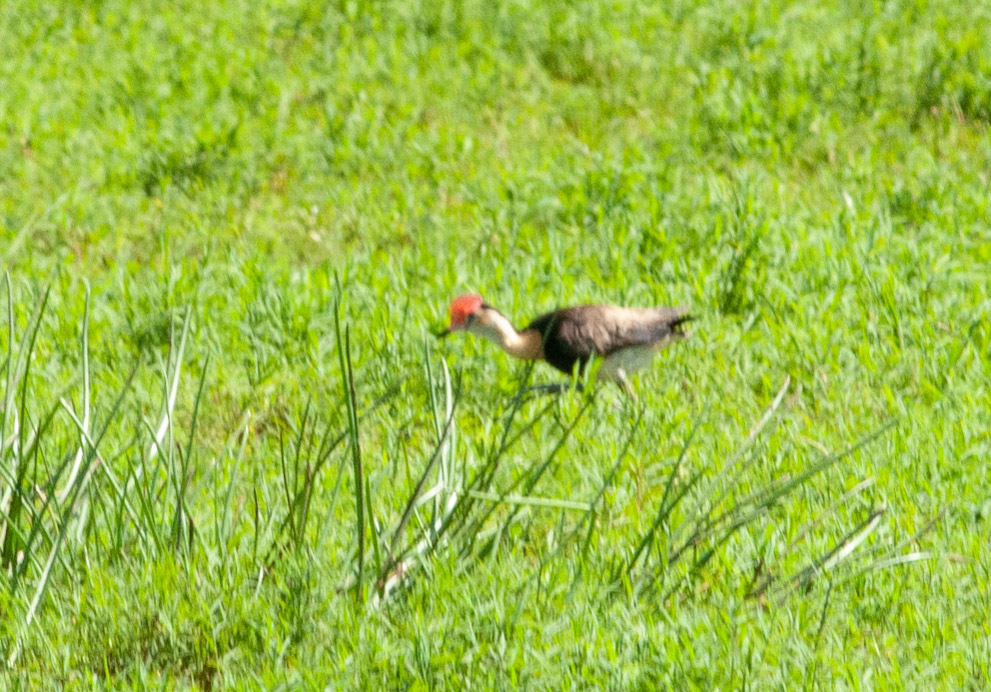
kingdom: Animalia
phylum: Chordata
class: Aves
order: Charadriiformes
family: Jacanidae
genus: Irediparra
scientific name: Irediparra gallinacea
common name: Comb-crested jacana
